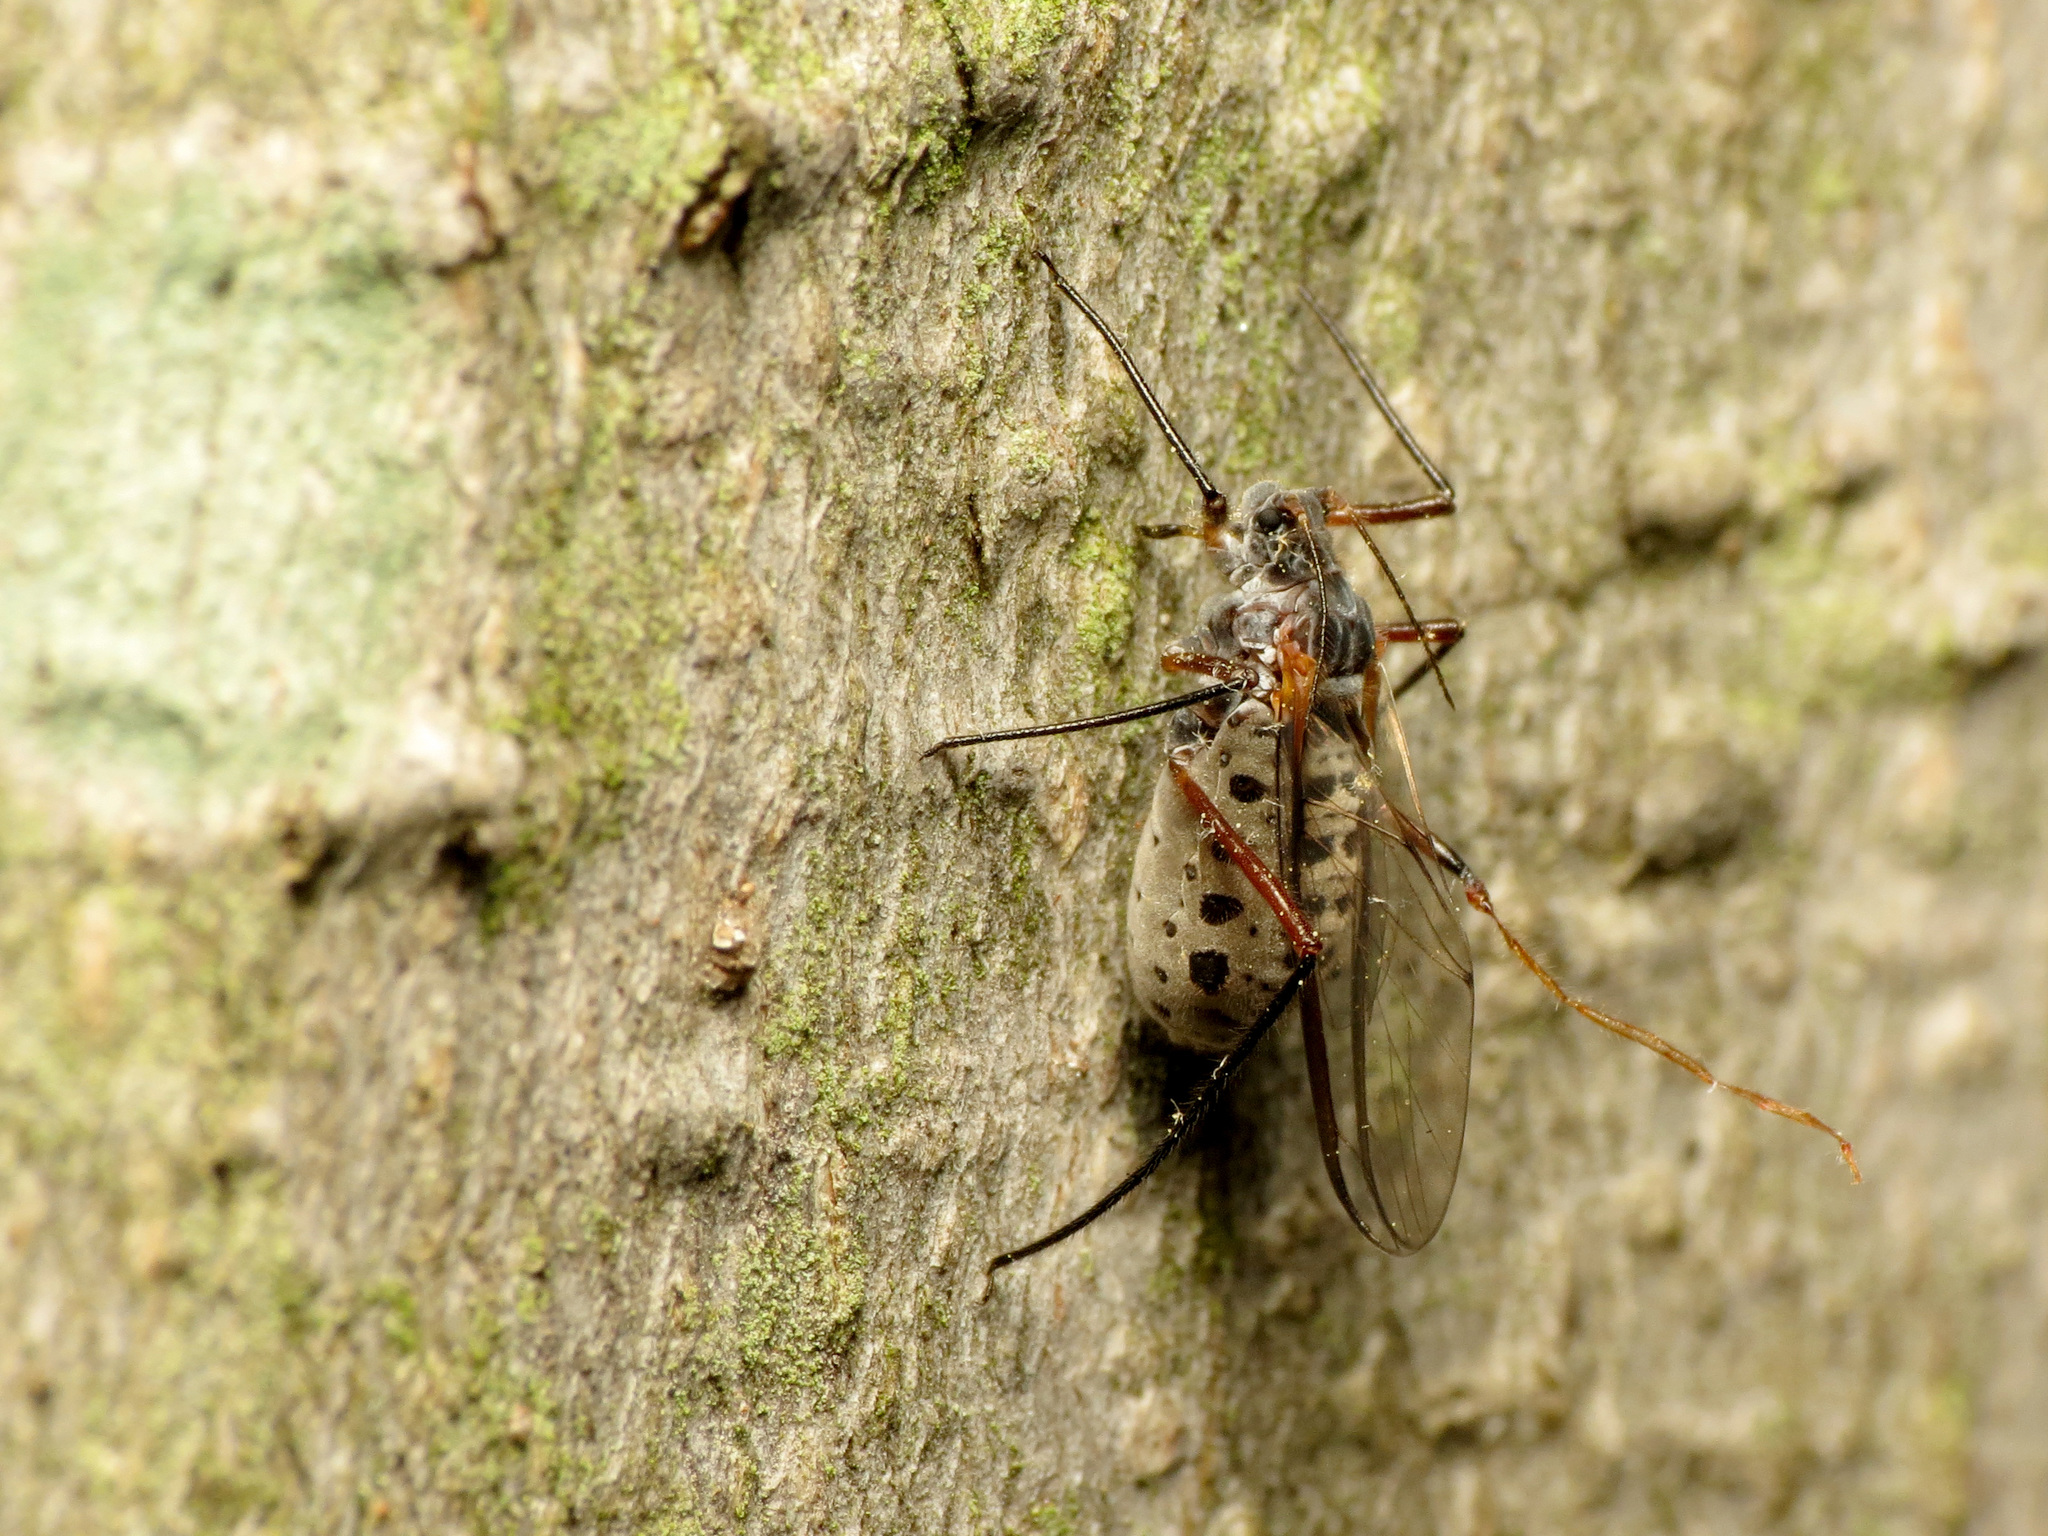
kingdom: Animalia
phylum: Arthropoda
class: Insecta
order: Hemiptera
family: Aphididae
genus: Longistigma
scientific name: Longistigma caryae
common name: Giant bark aphid
